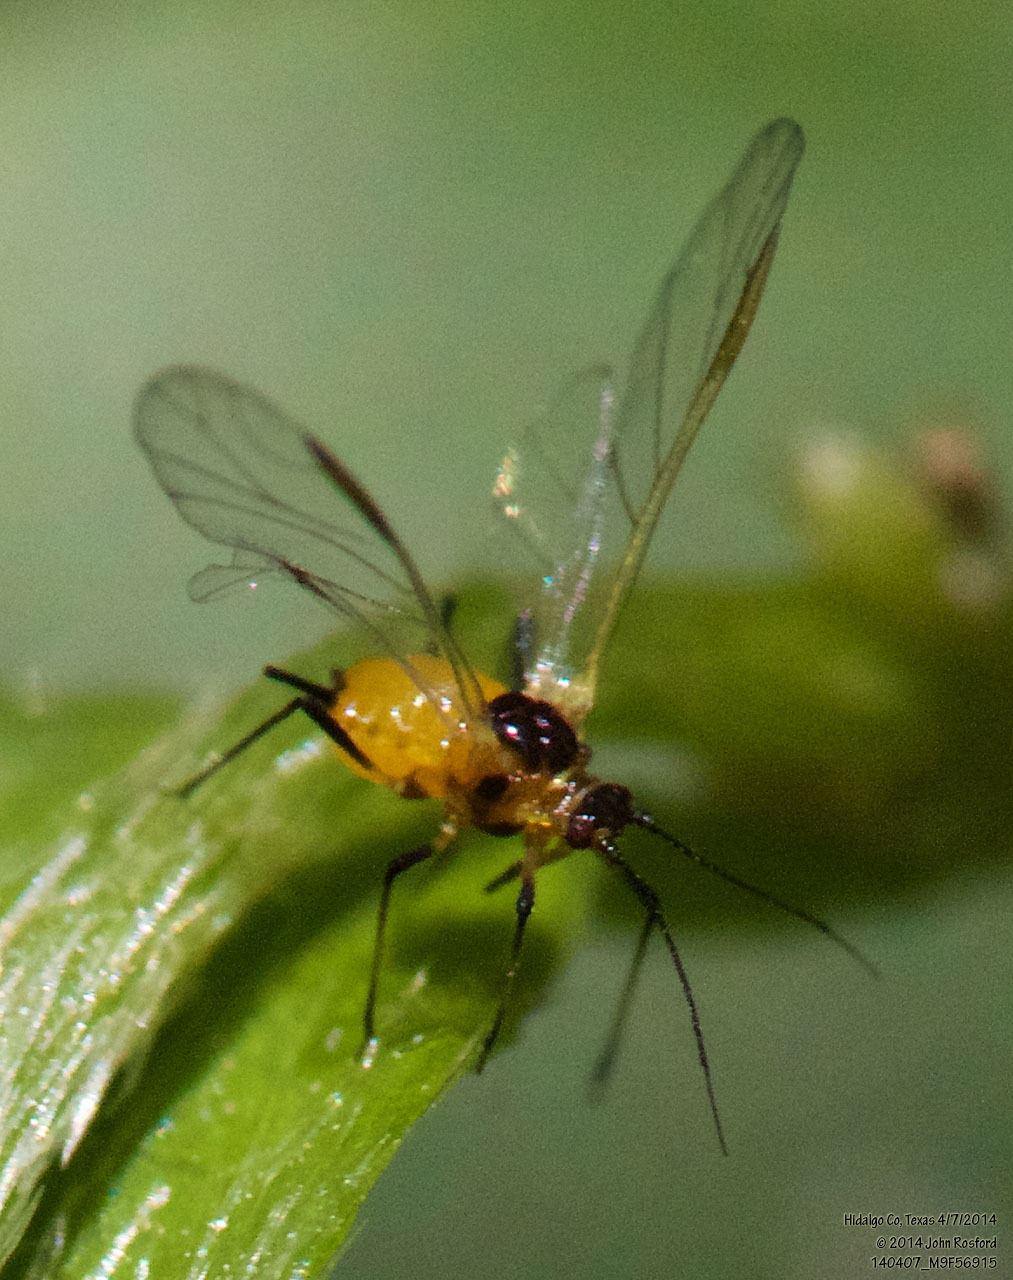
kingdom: Animalia
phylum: Arthropoda
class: Insecta
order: Hemiptera
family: Aphididae
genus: Aphis
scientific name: Aphis nerii
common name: Oleander aphid
